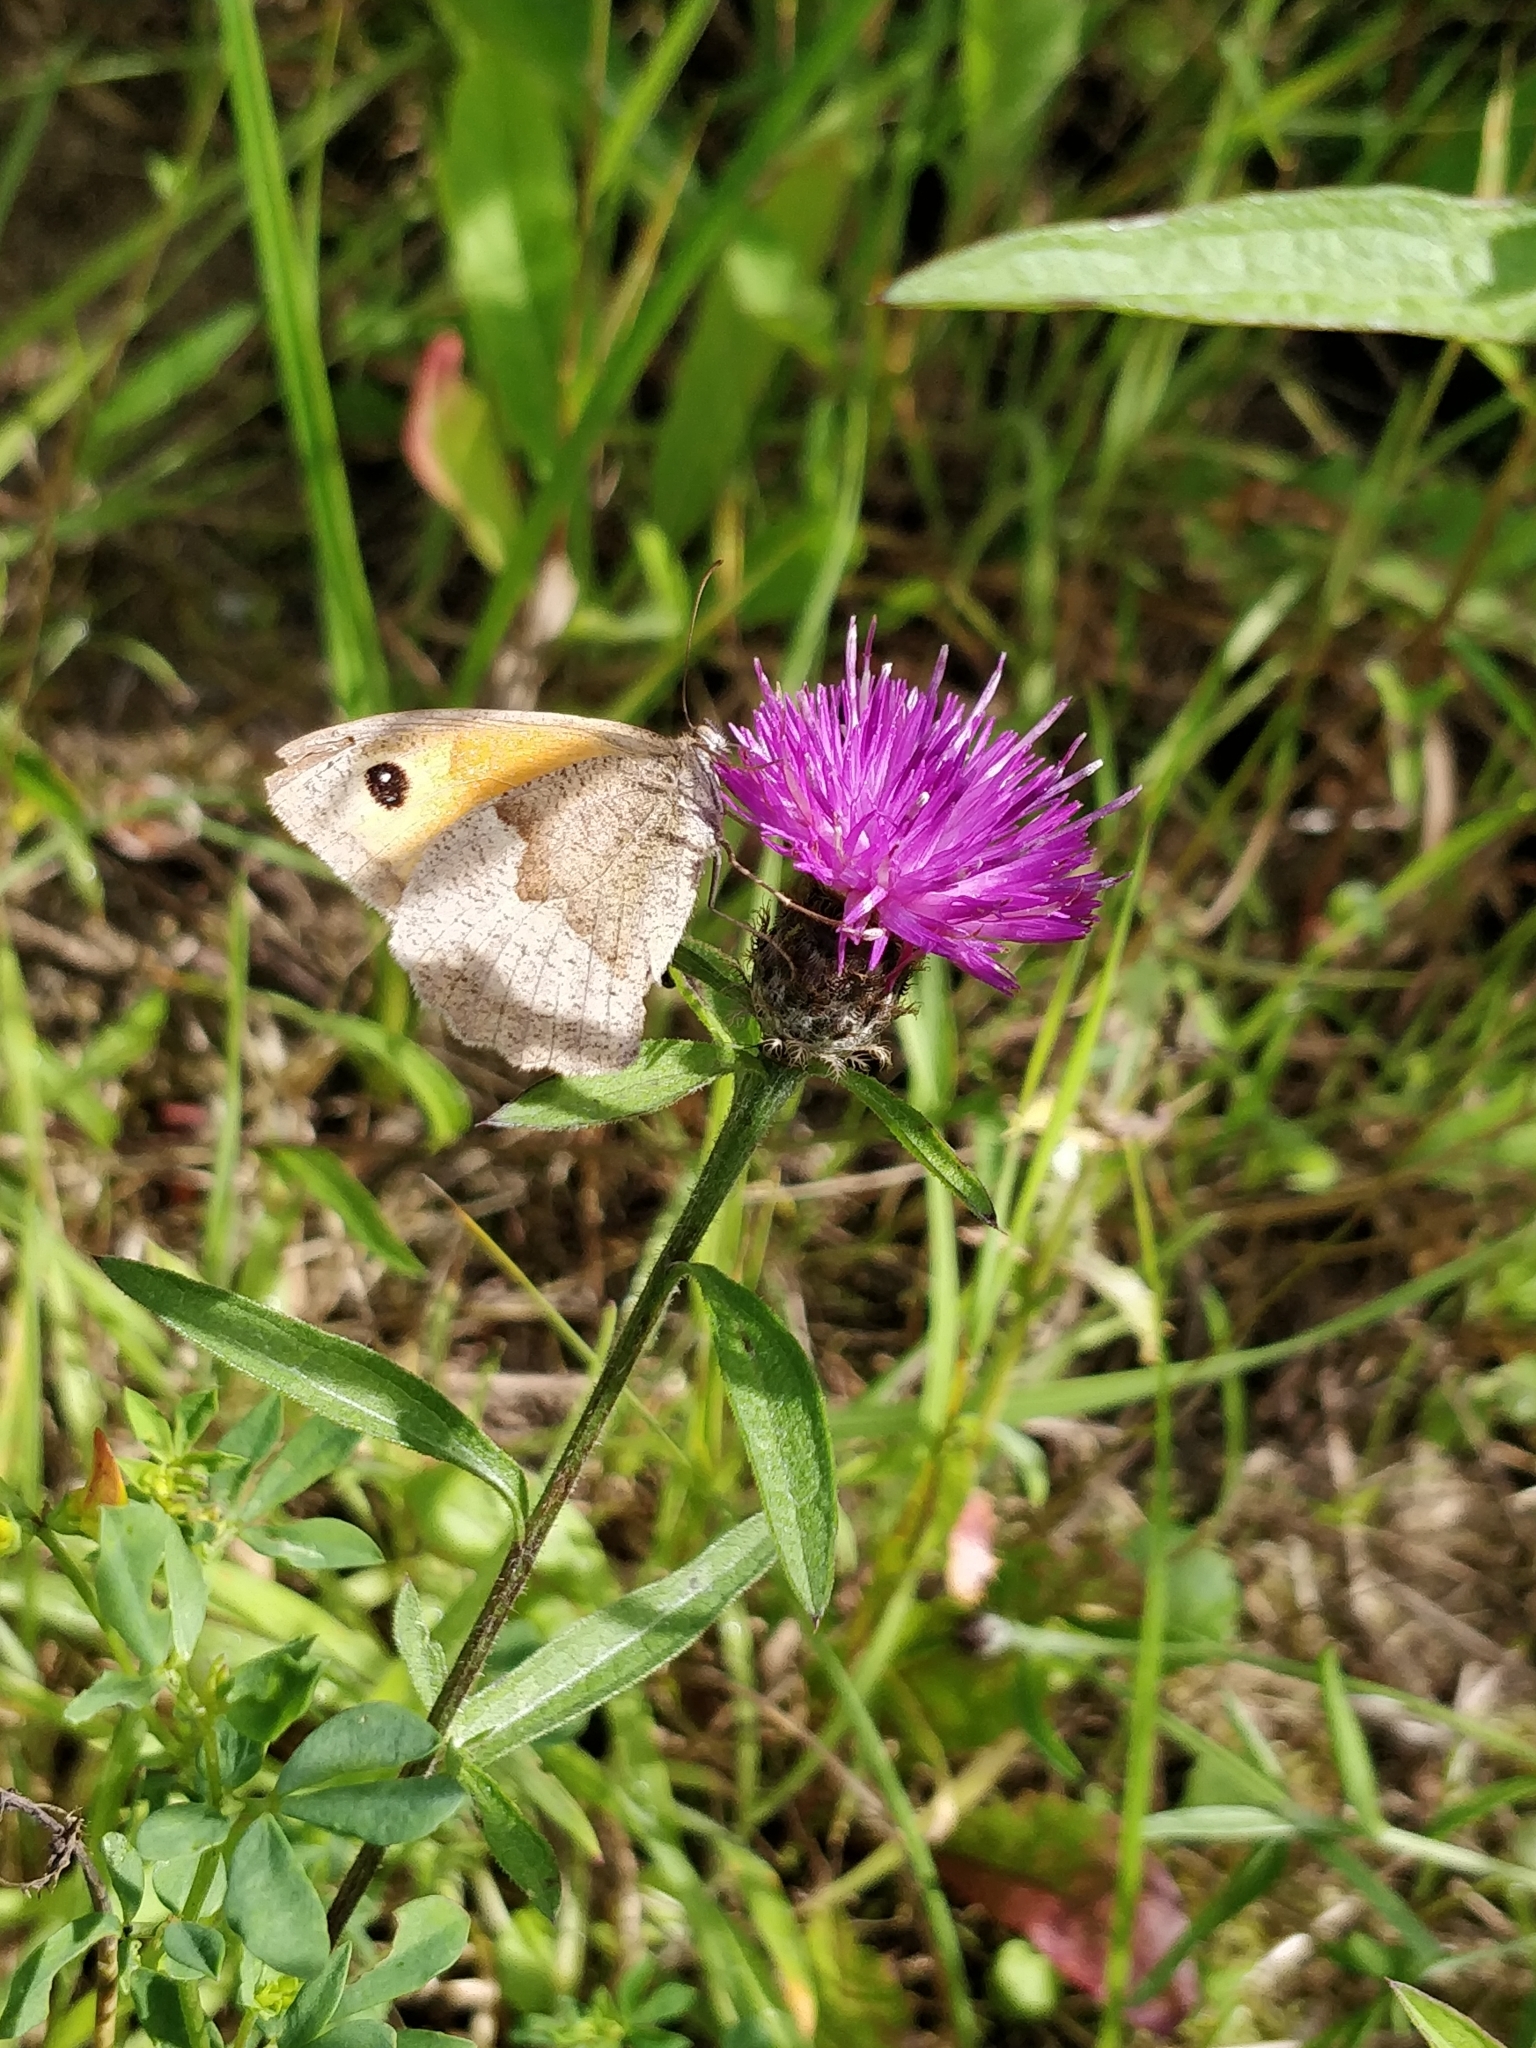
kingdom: Animalia
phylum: Arthropoda
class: Insecta
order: Lepidoptera
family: Nymphalidae
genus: Maniola
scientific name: Maniola jurtina
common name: Meadow brown
